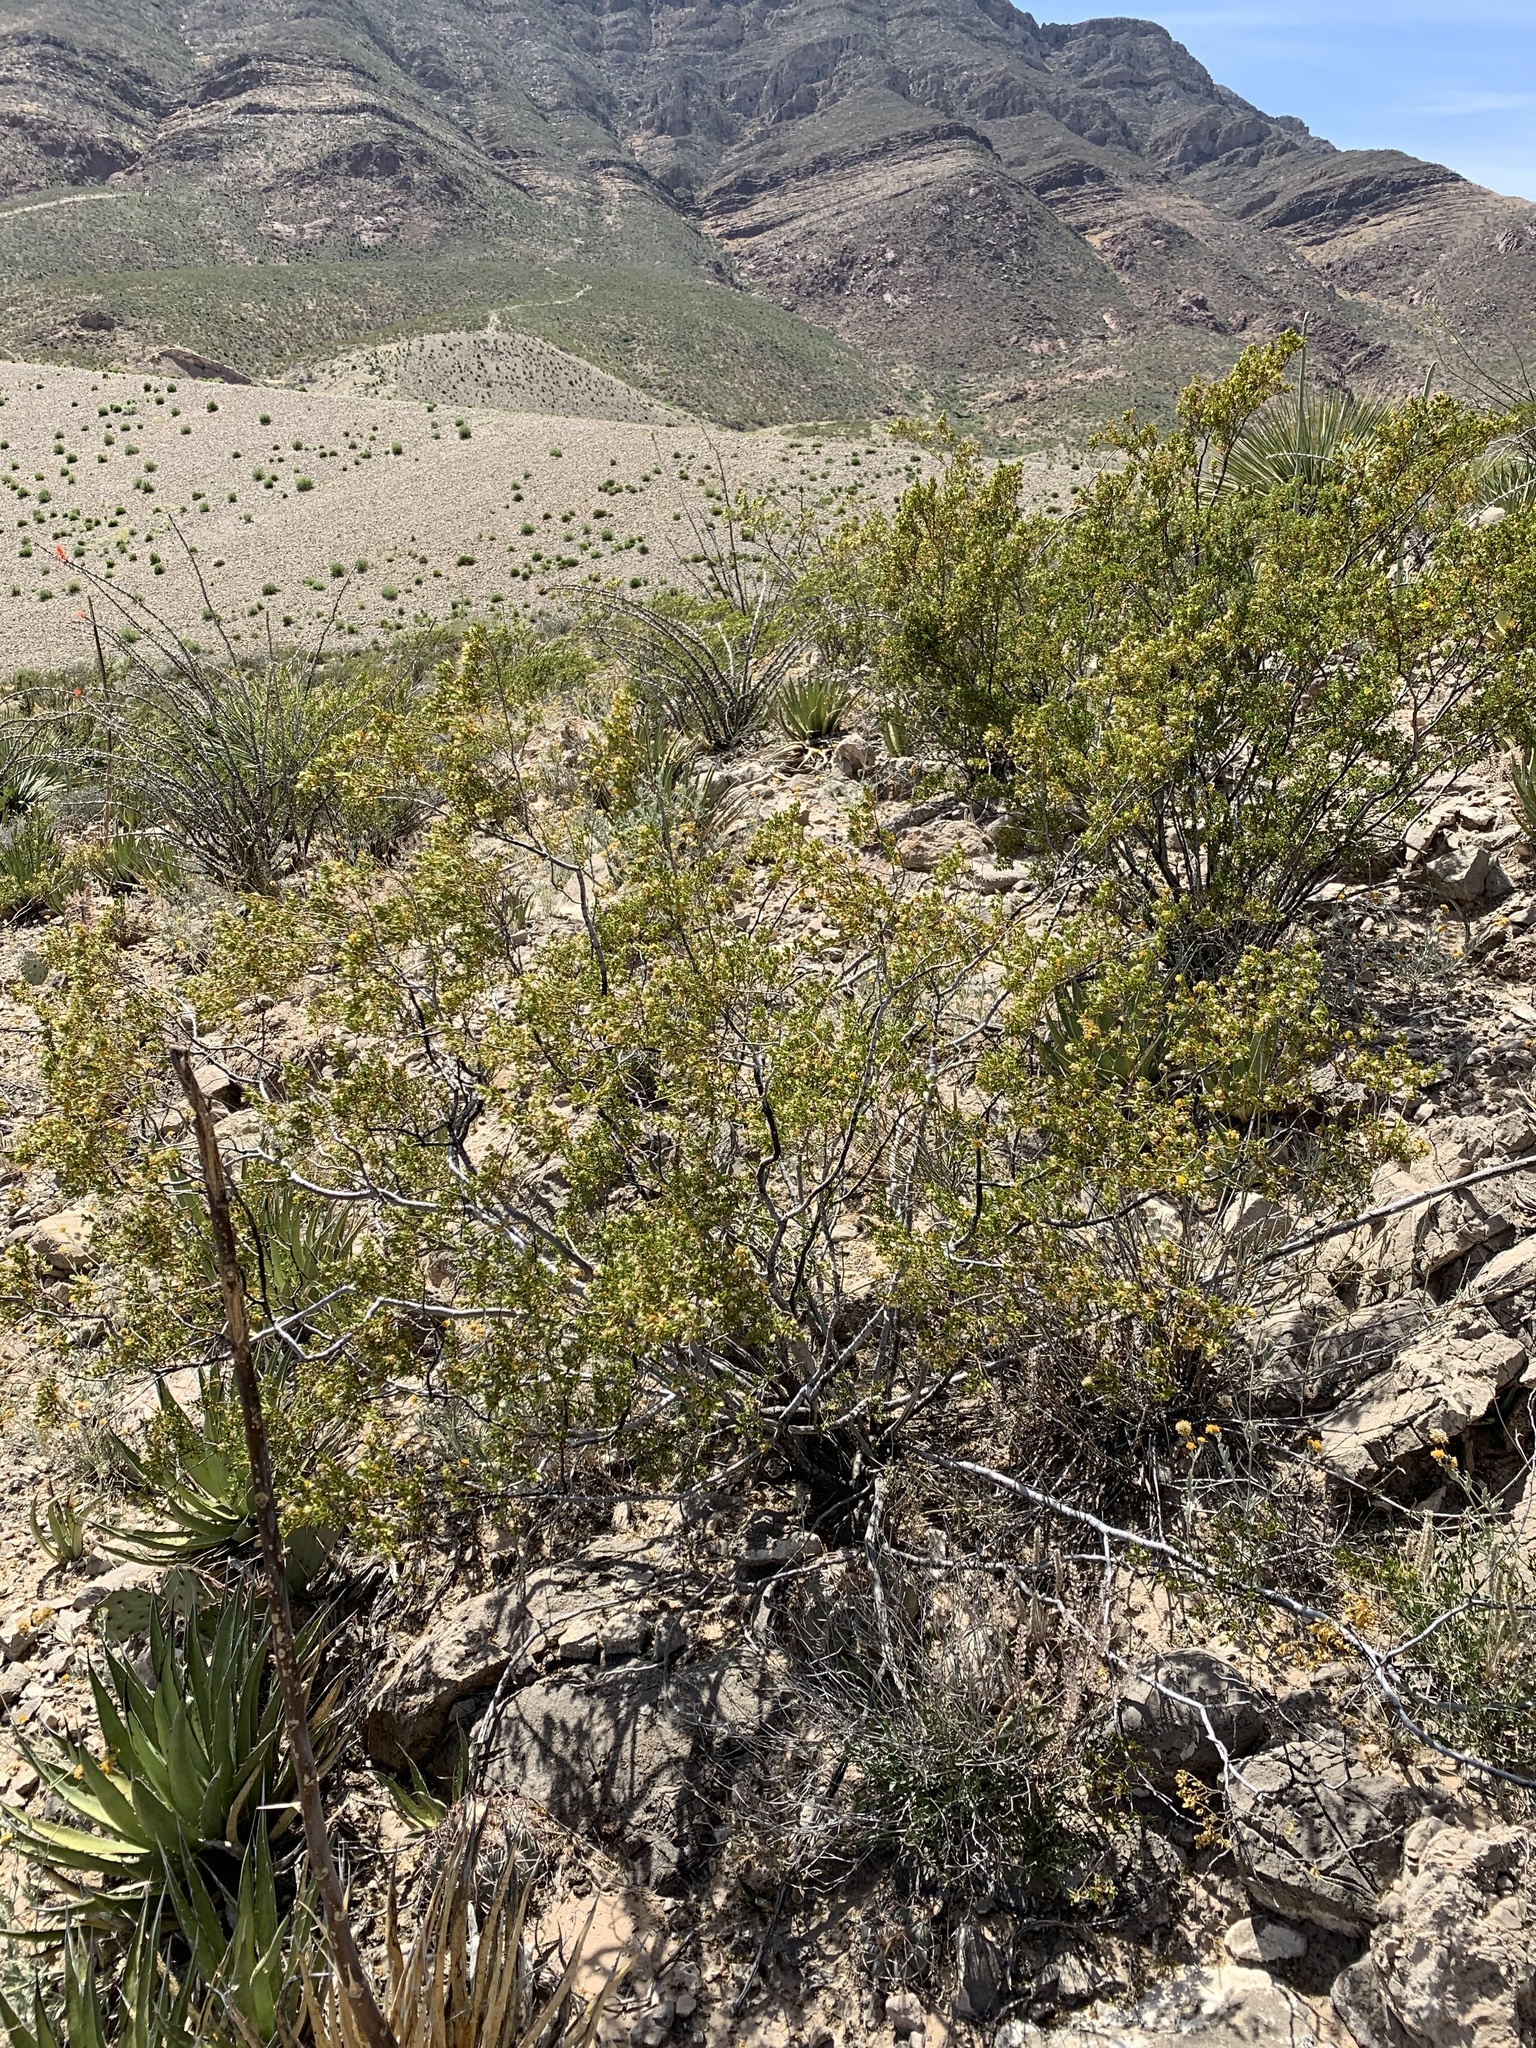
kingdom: Plantae
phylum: Tracheophyta
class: Magnoliopsida
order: Zygophyllales
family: Zygophyllaceae
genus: Larrea
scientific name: Larrea tridentata
